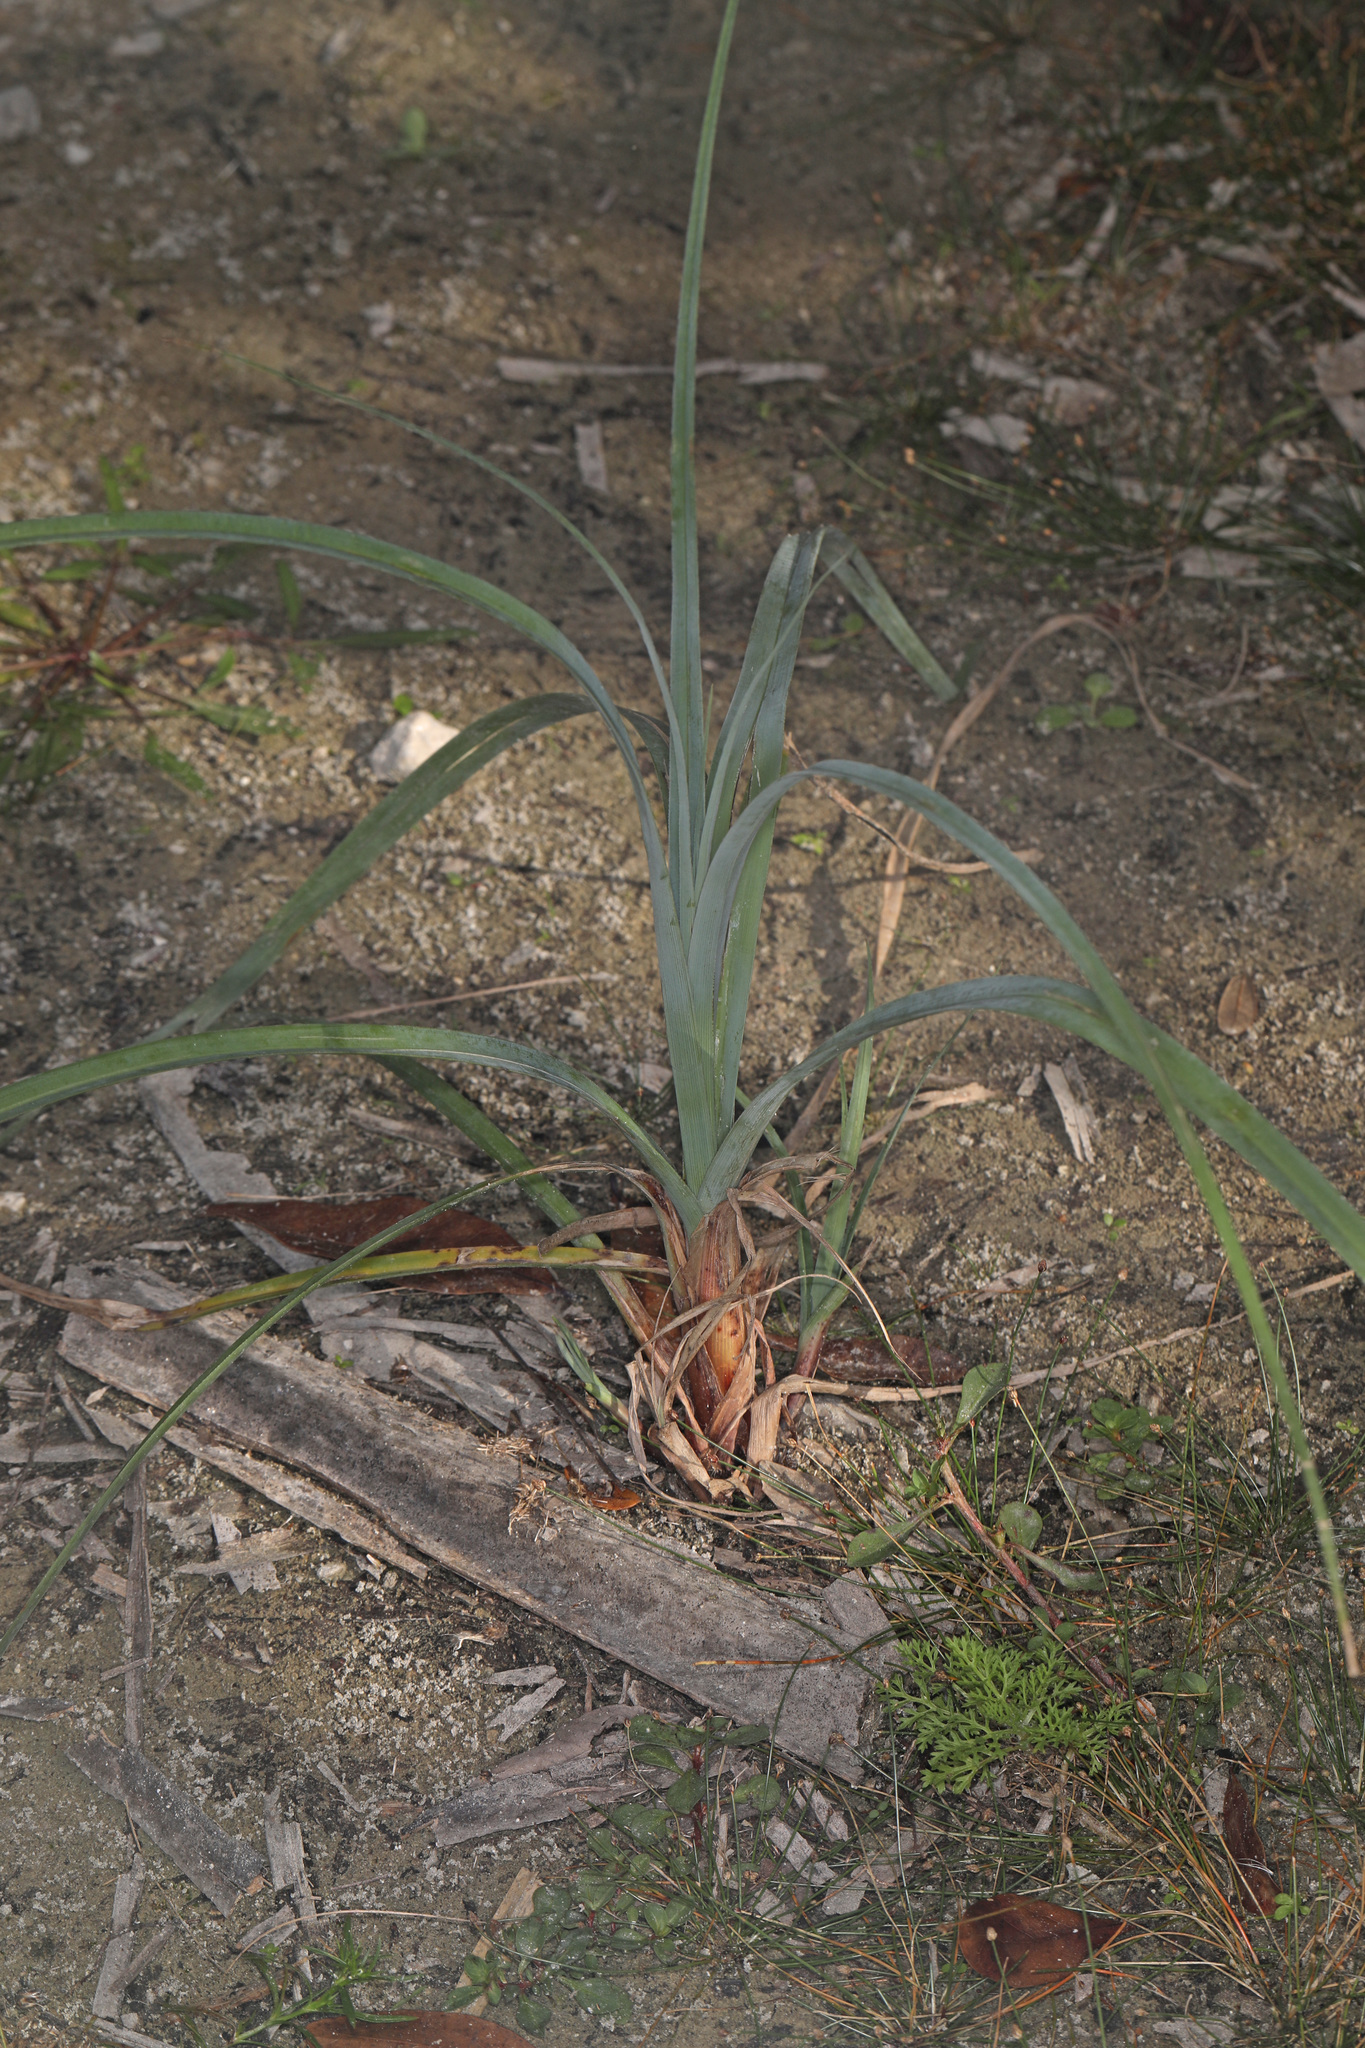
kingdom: Plantae
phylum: Tracheophyta
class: Liliopsida
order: Poales
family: Cyperaceae
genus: Cyperus
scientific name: Cyperus ligularis
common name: Swamp flat sedge
